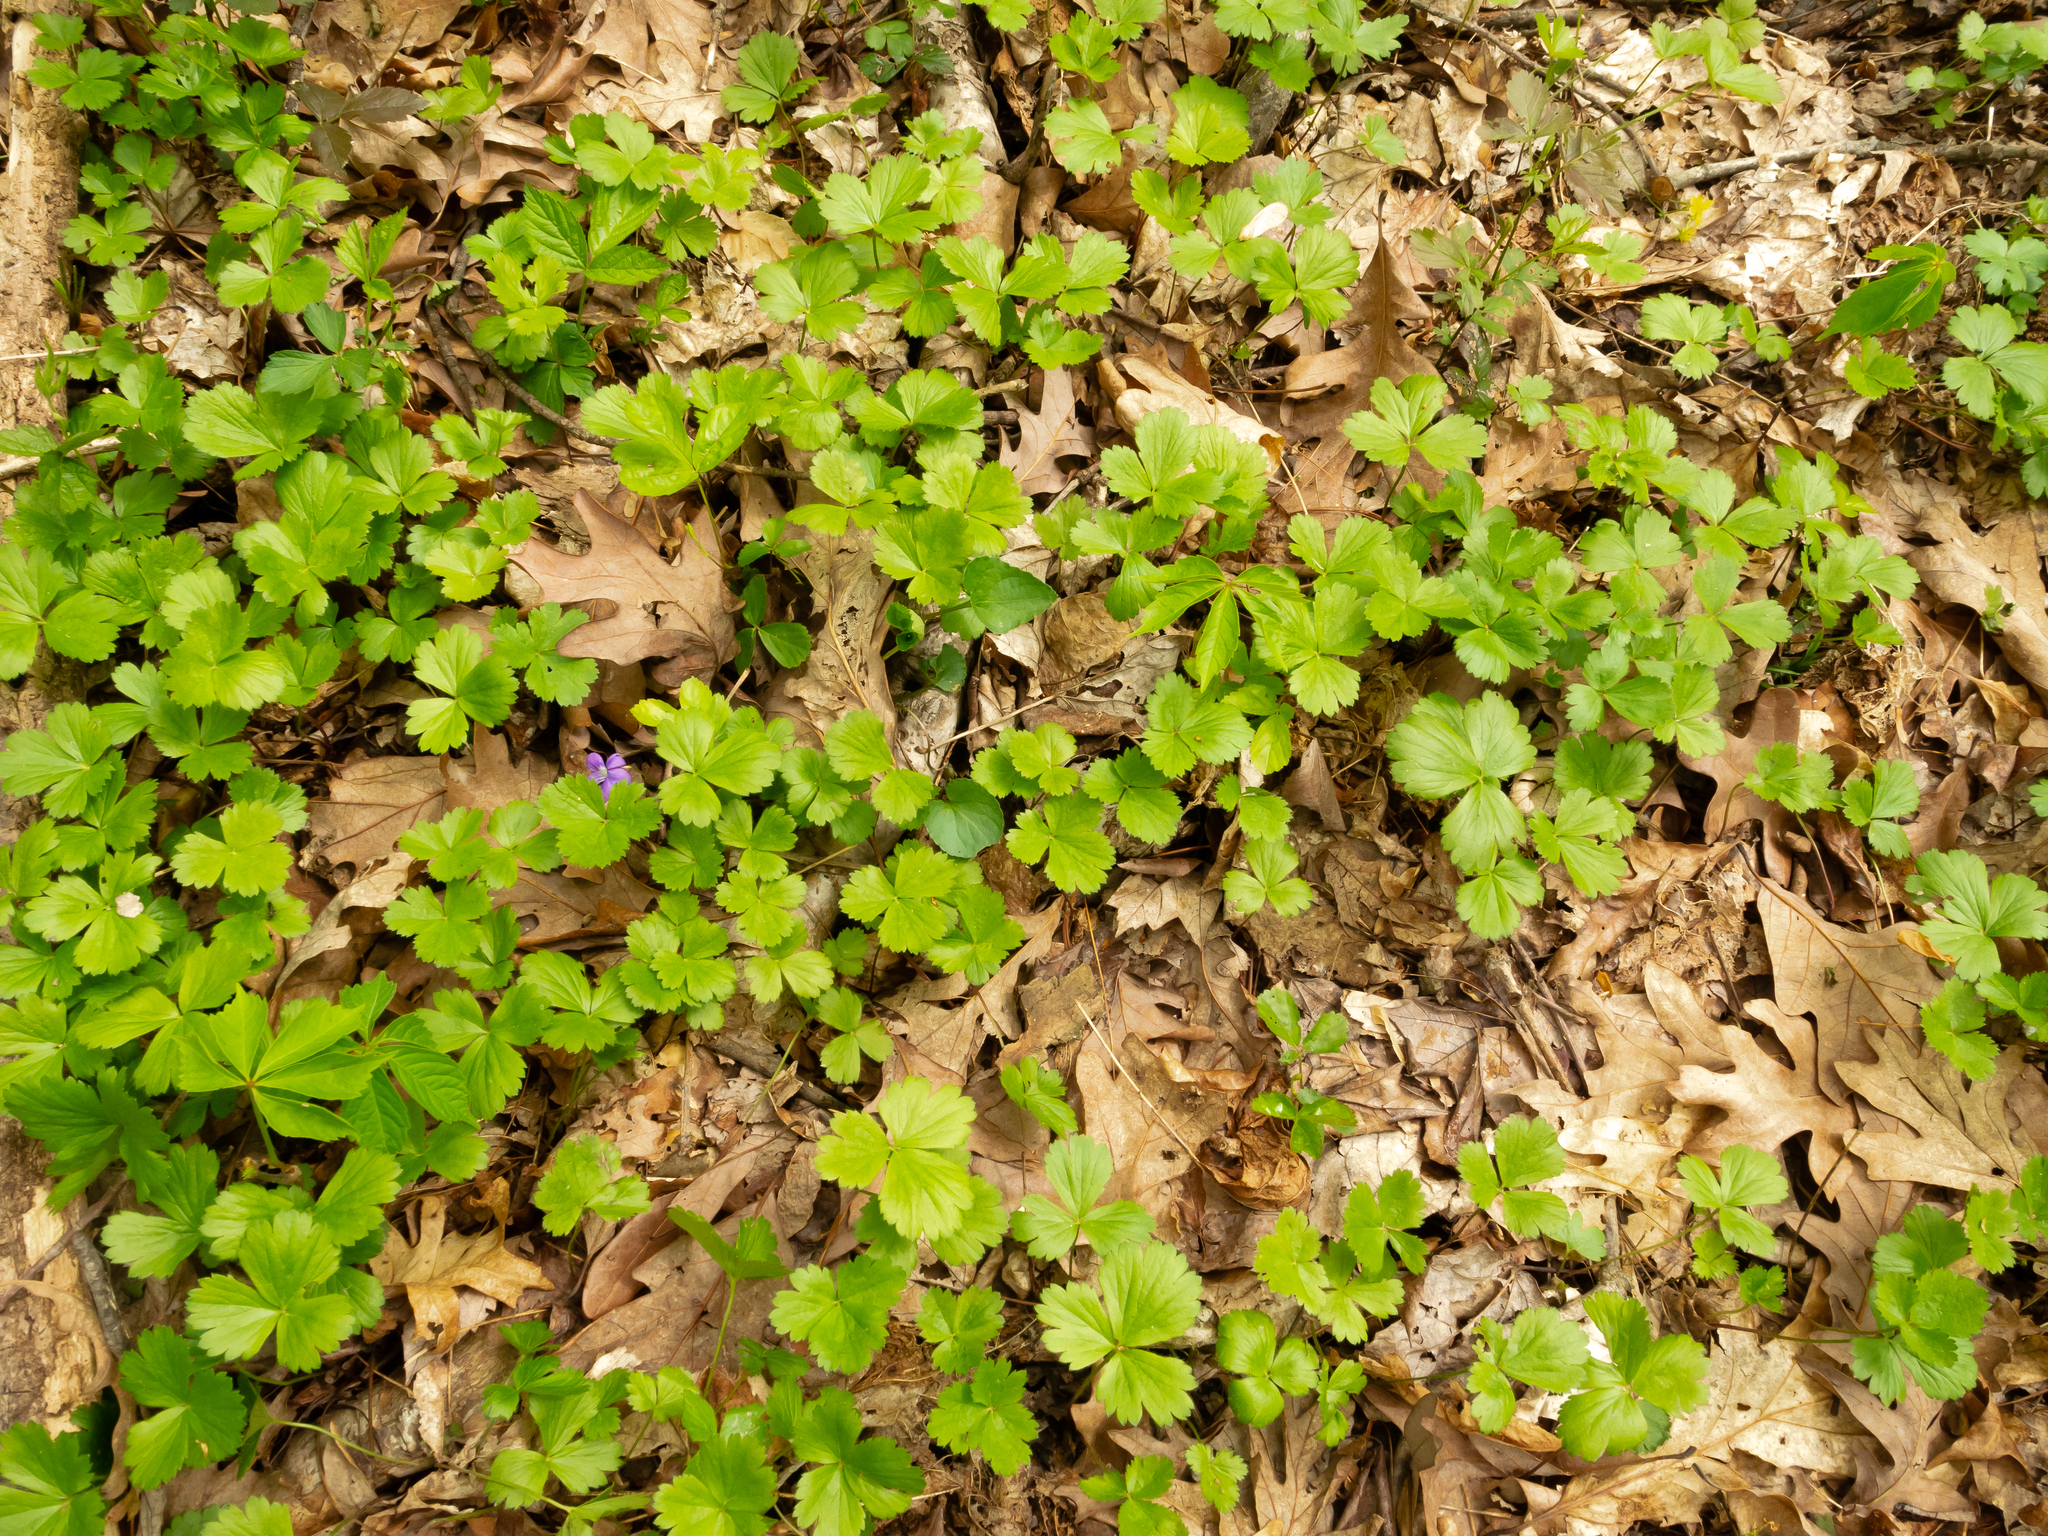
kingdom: Plantae
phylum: Tracheophyta
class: Magnoliopsida
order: Rosales
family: Rosaceae
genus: Geum
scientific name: Geum fragarioides
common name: Appalachian barren strawberry
